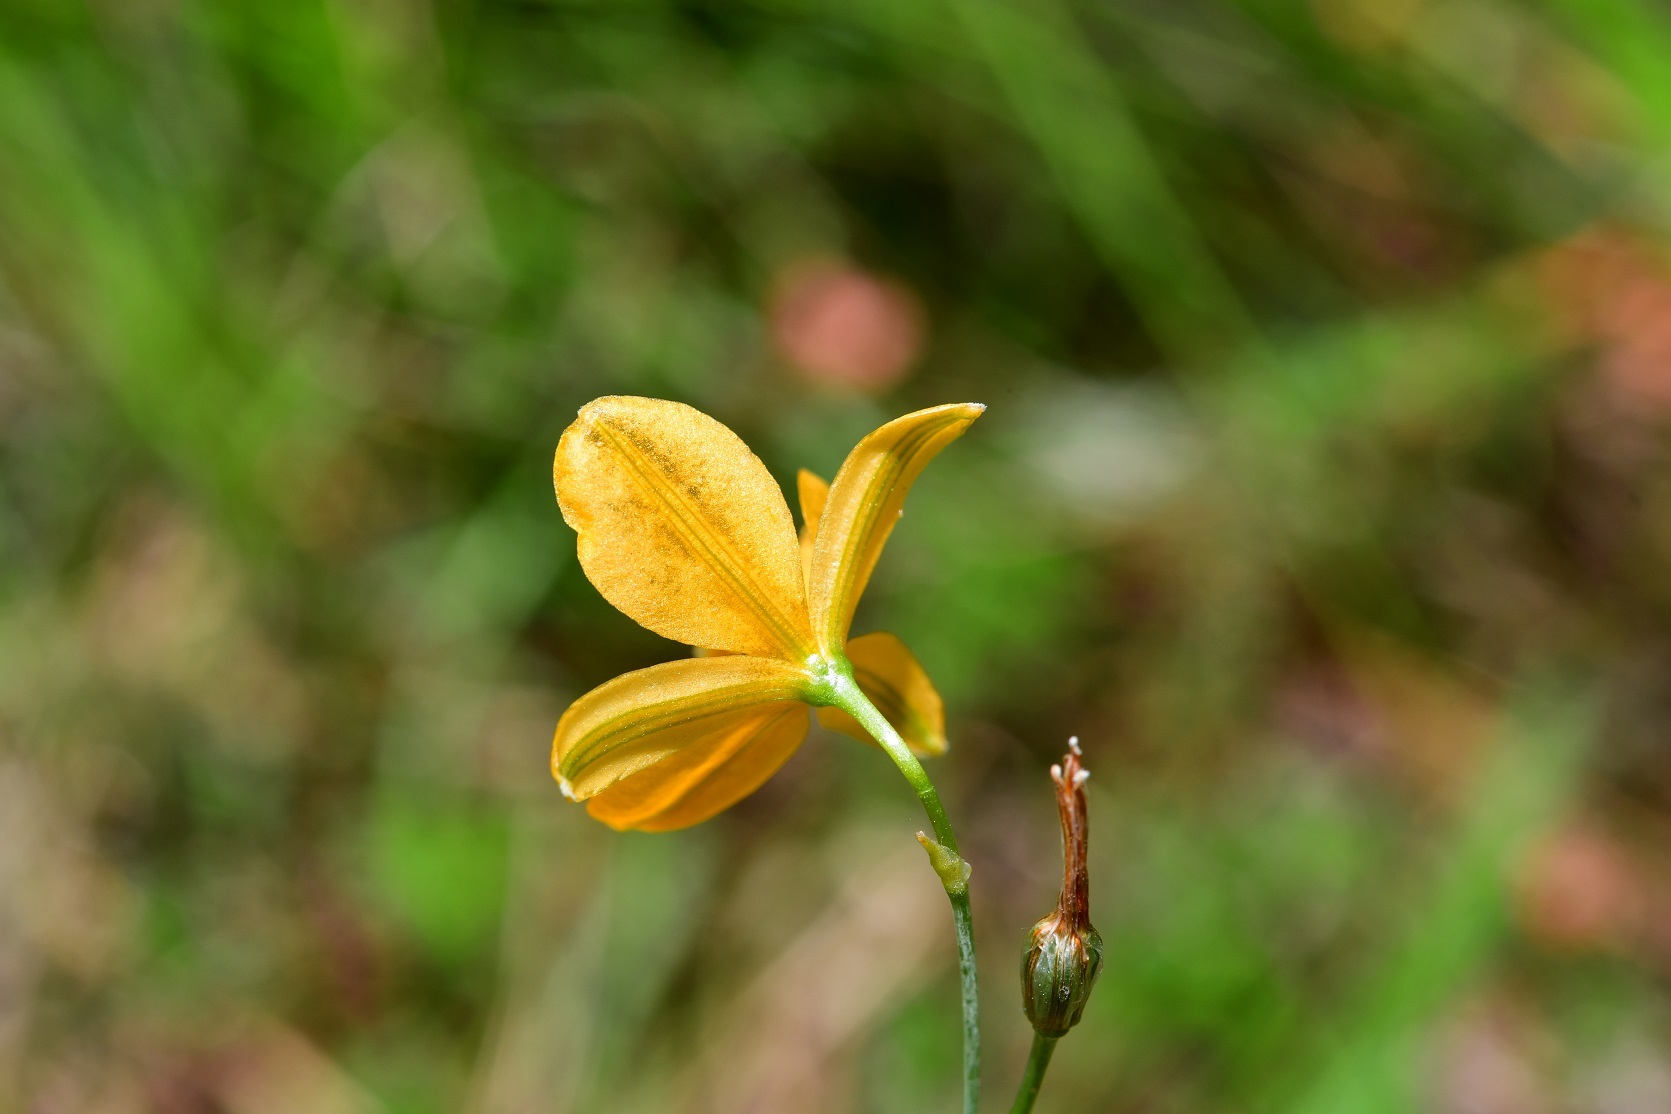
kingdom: Plantae
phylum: Tracheophyta
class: Liliopsida
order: Asparagales
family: Asparagaceae
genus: Echeandia
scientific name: Echeandia skinneri
